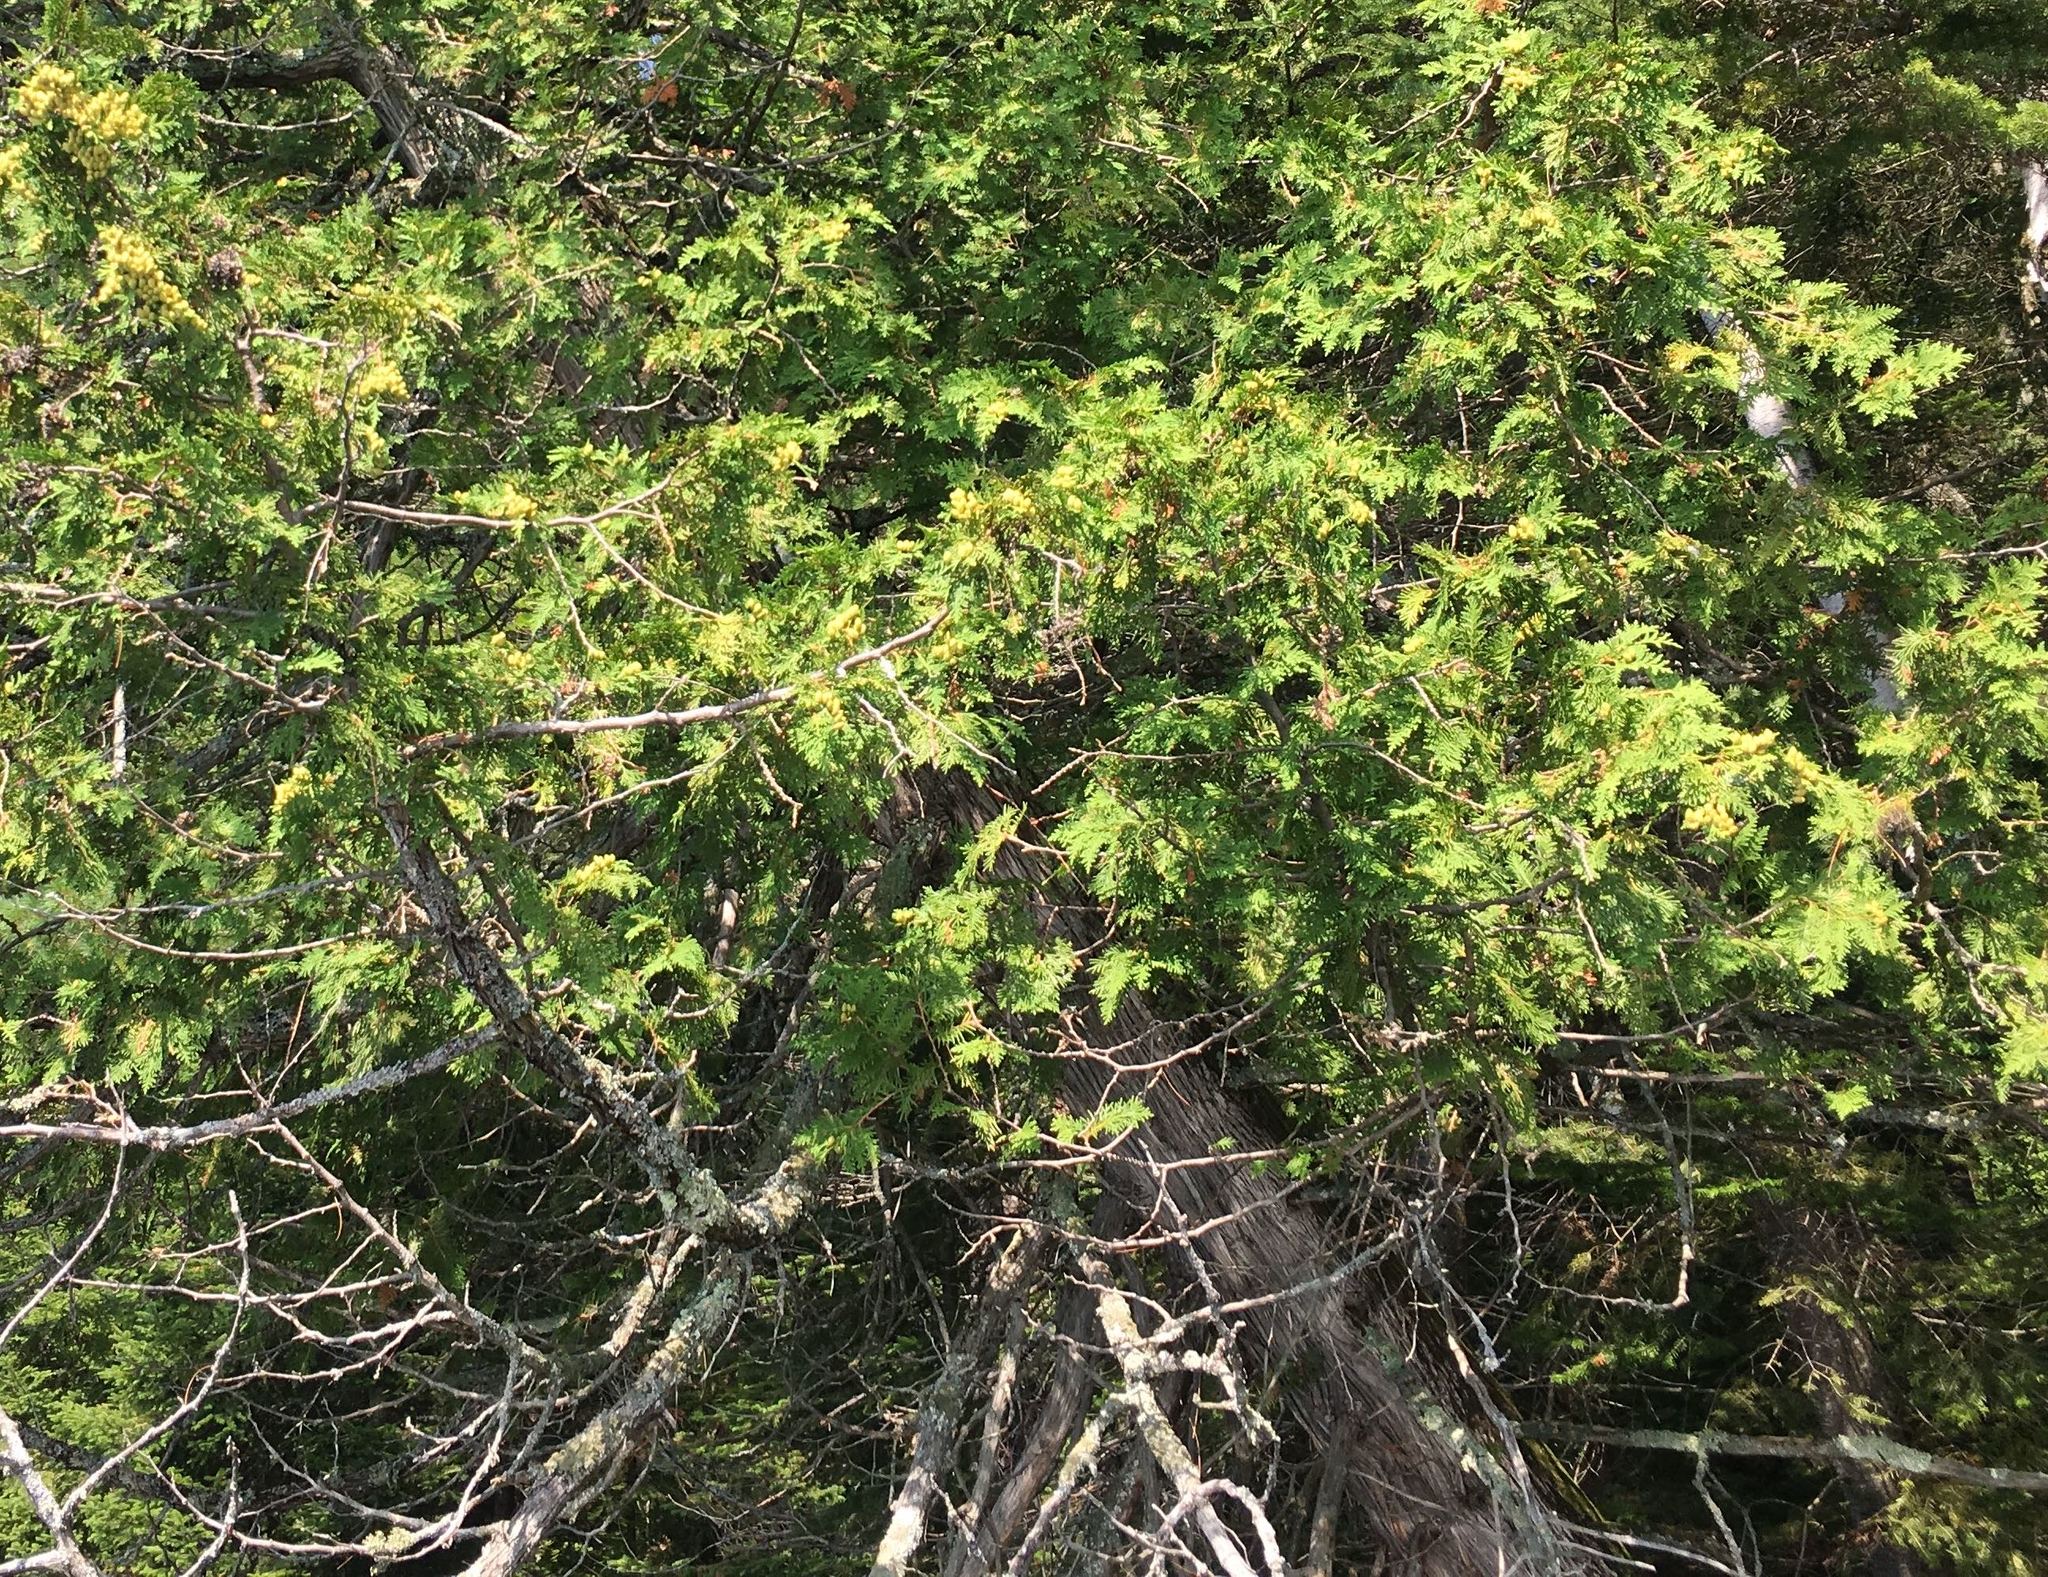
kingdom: Plantae
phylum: Tracheophyta
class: Pinopsida
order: Pinales
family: Cupressaceae
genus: Thuja
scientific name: Thuja occidentalis
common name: Northern white-cedar
